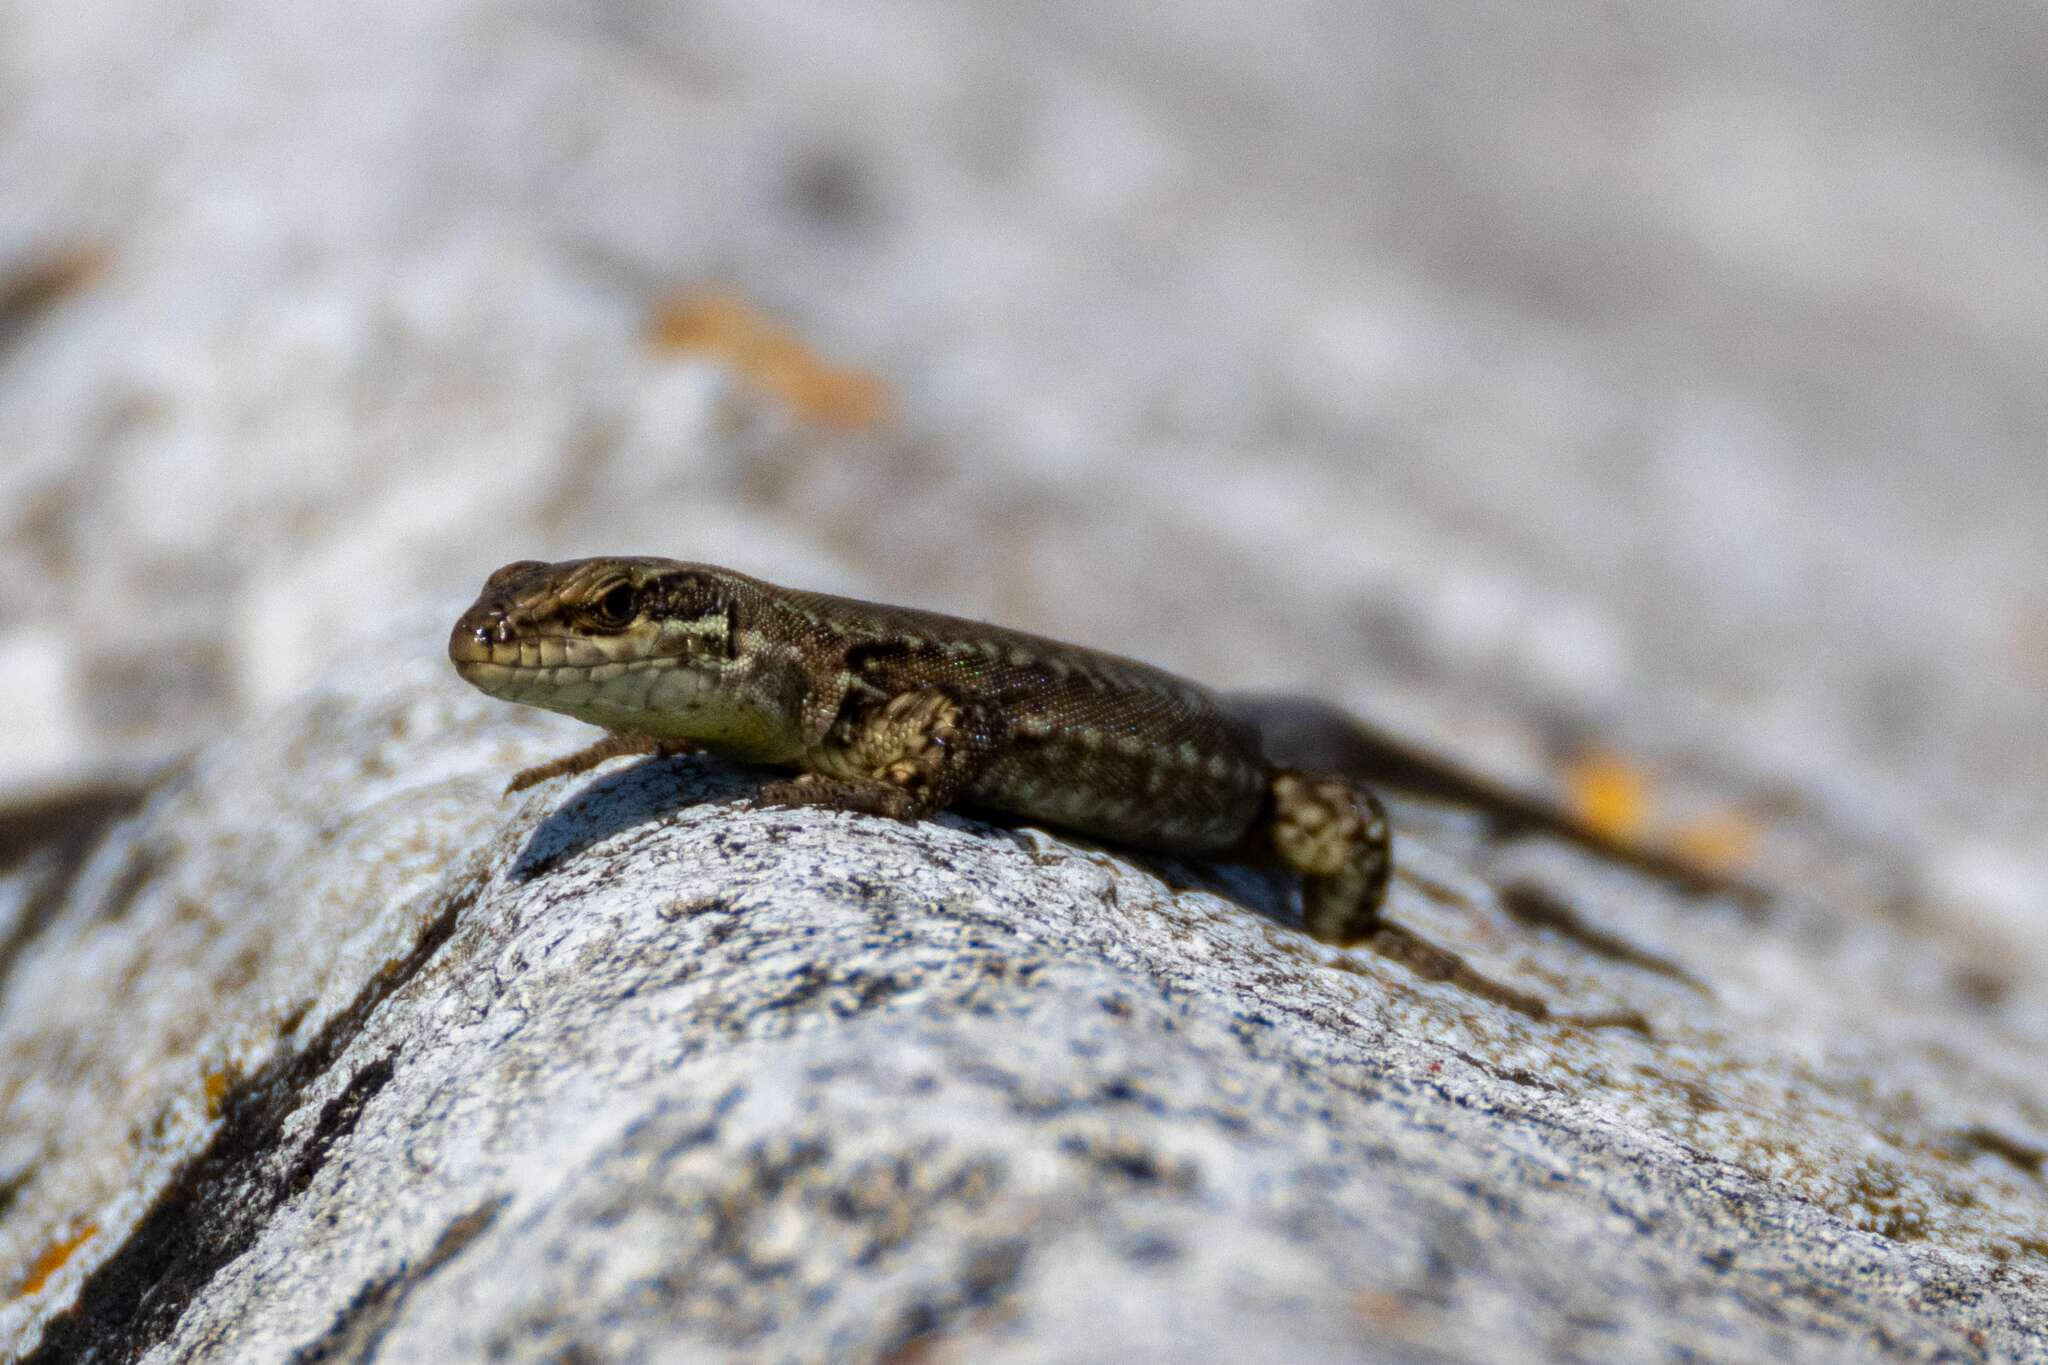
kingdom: Animalia
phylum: Chordata
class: Squamata
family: Lacertidae
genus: Podarcis
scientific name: Podarcis muralis
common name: Common wall lizard
